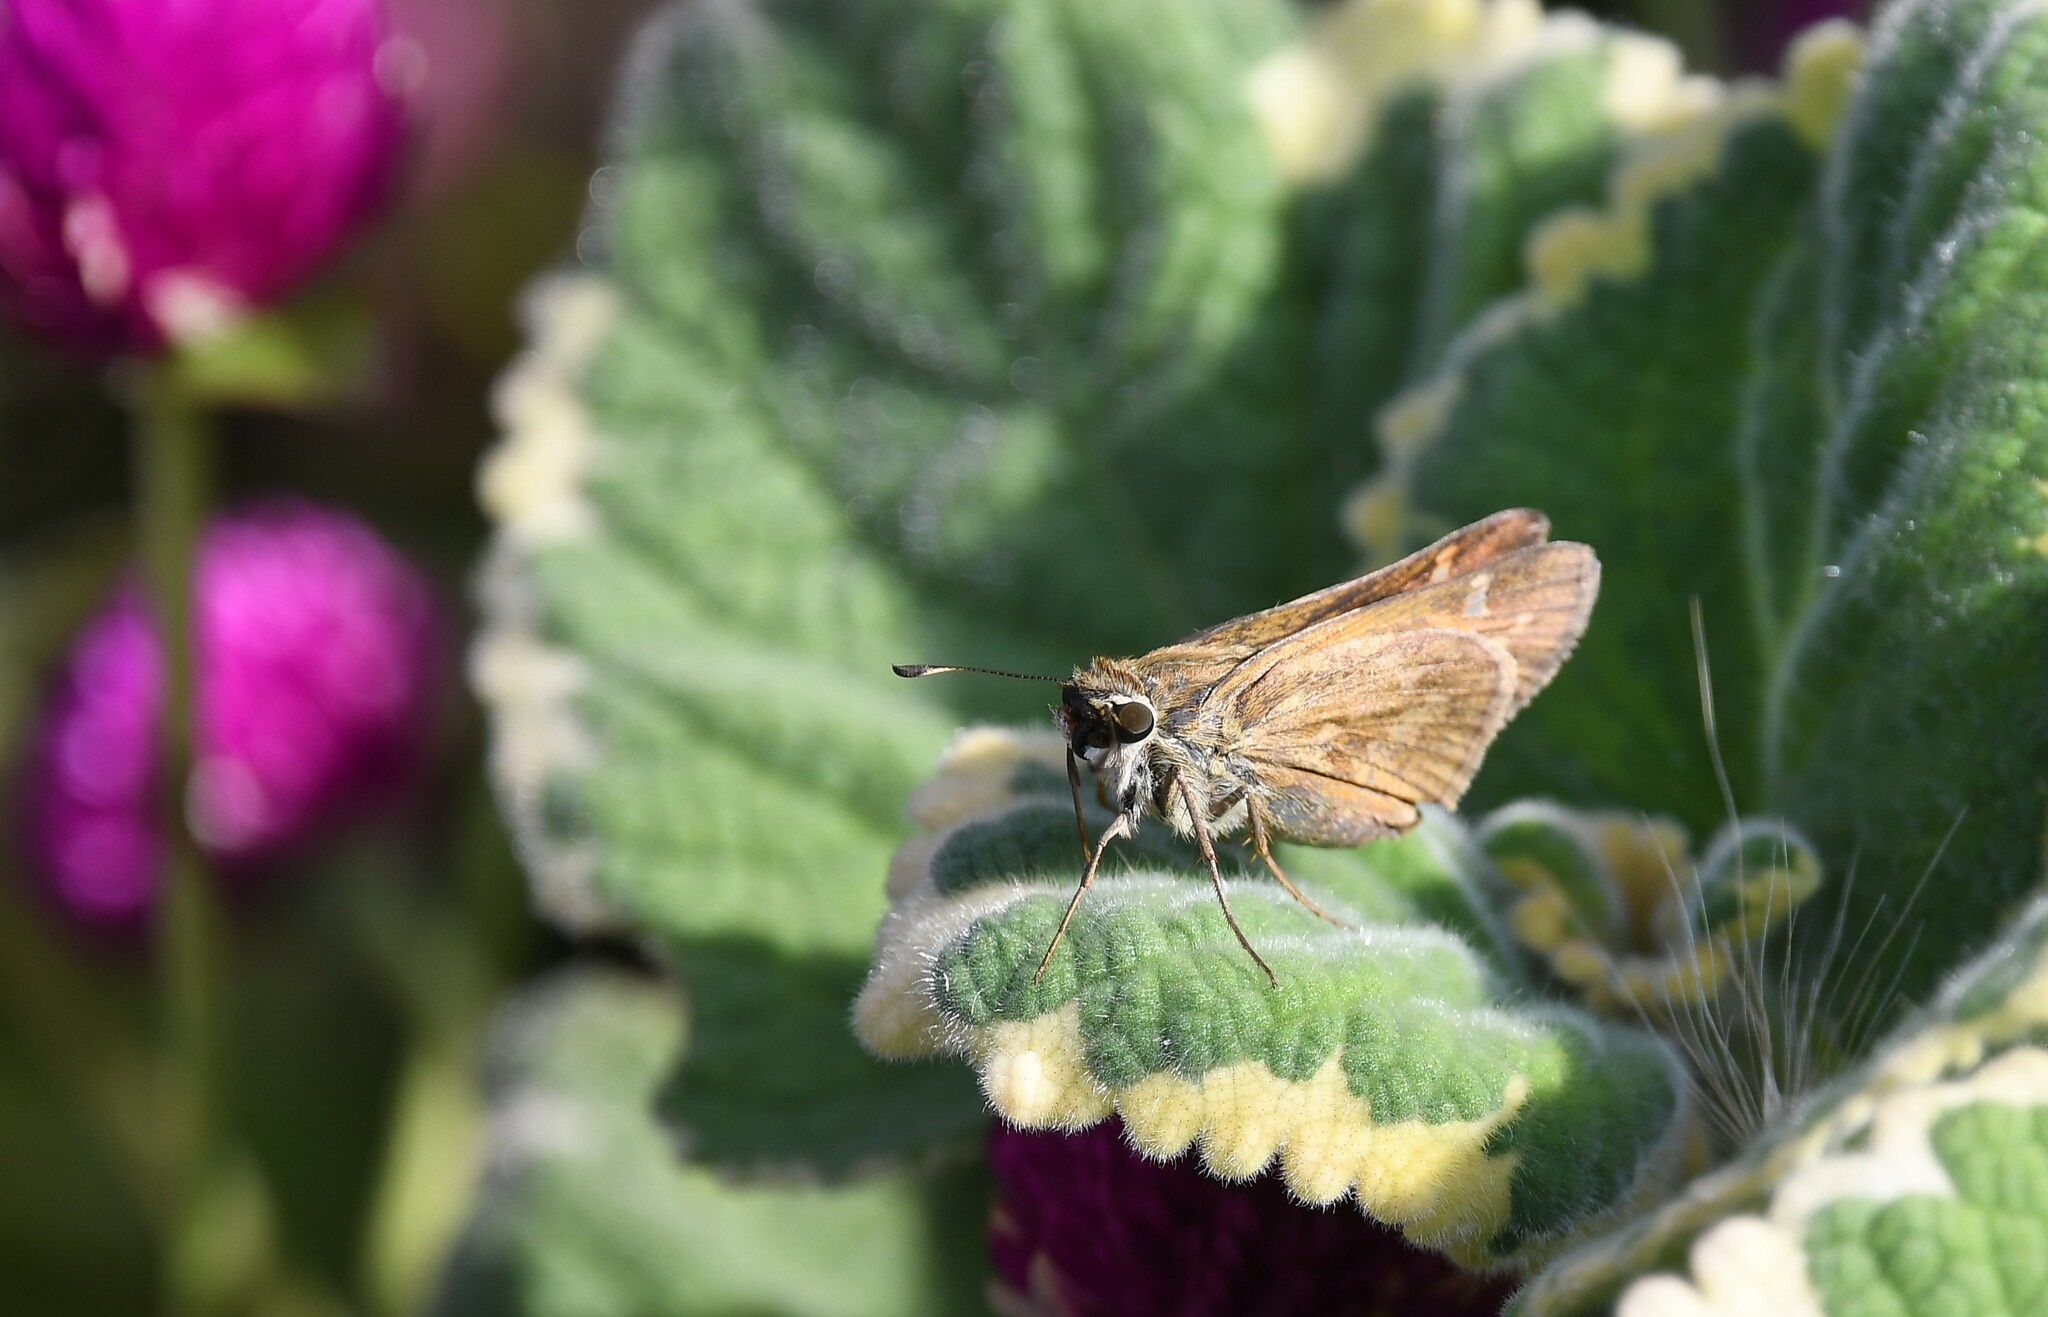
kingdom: Animalia
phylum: Arthropoda
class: Insecta
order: Lepidoptera
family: Hesperiidae
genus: Atalopedes
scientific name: Atalopedes
